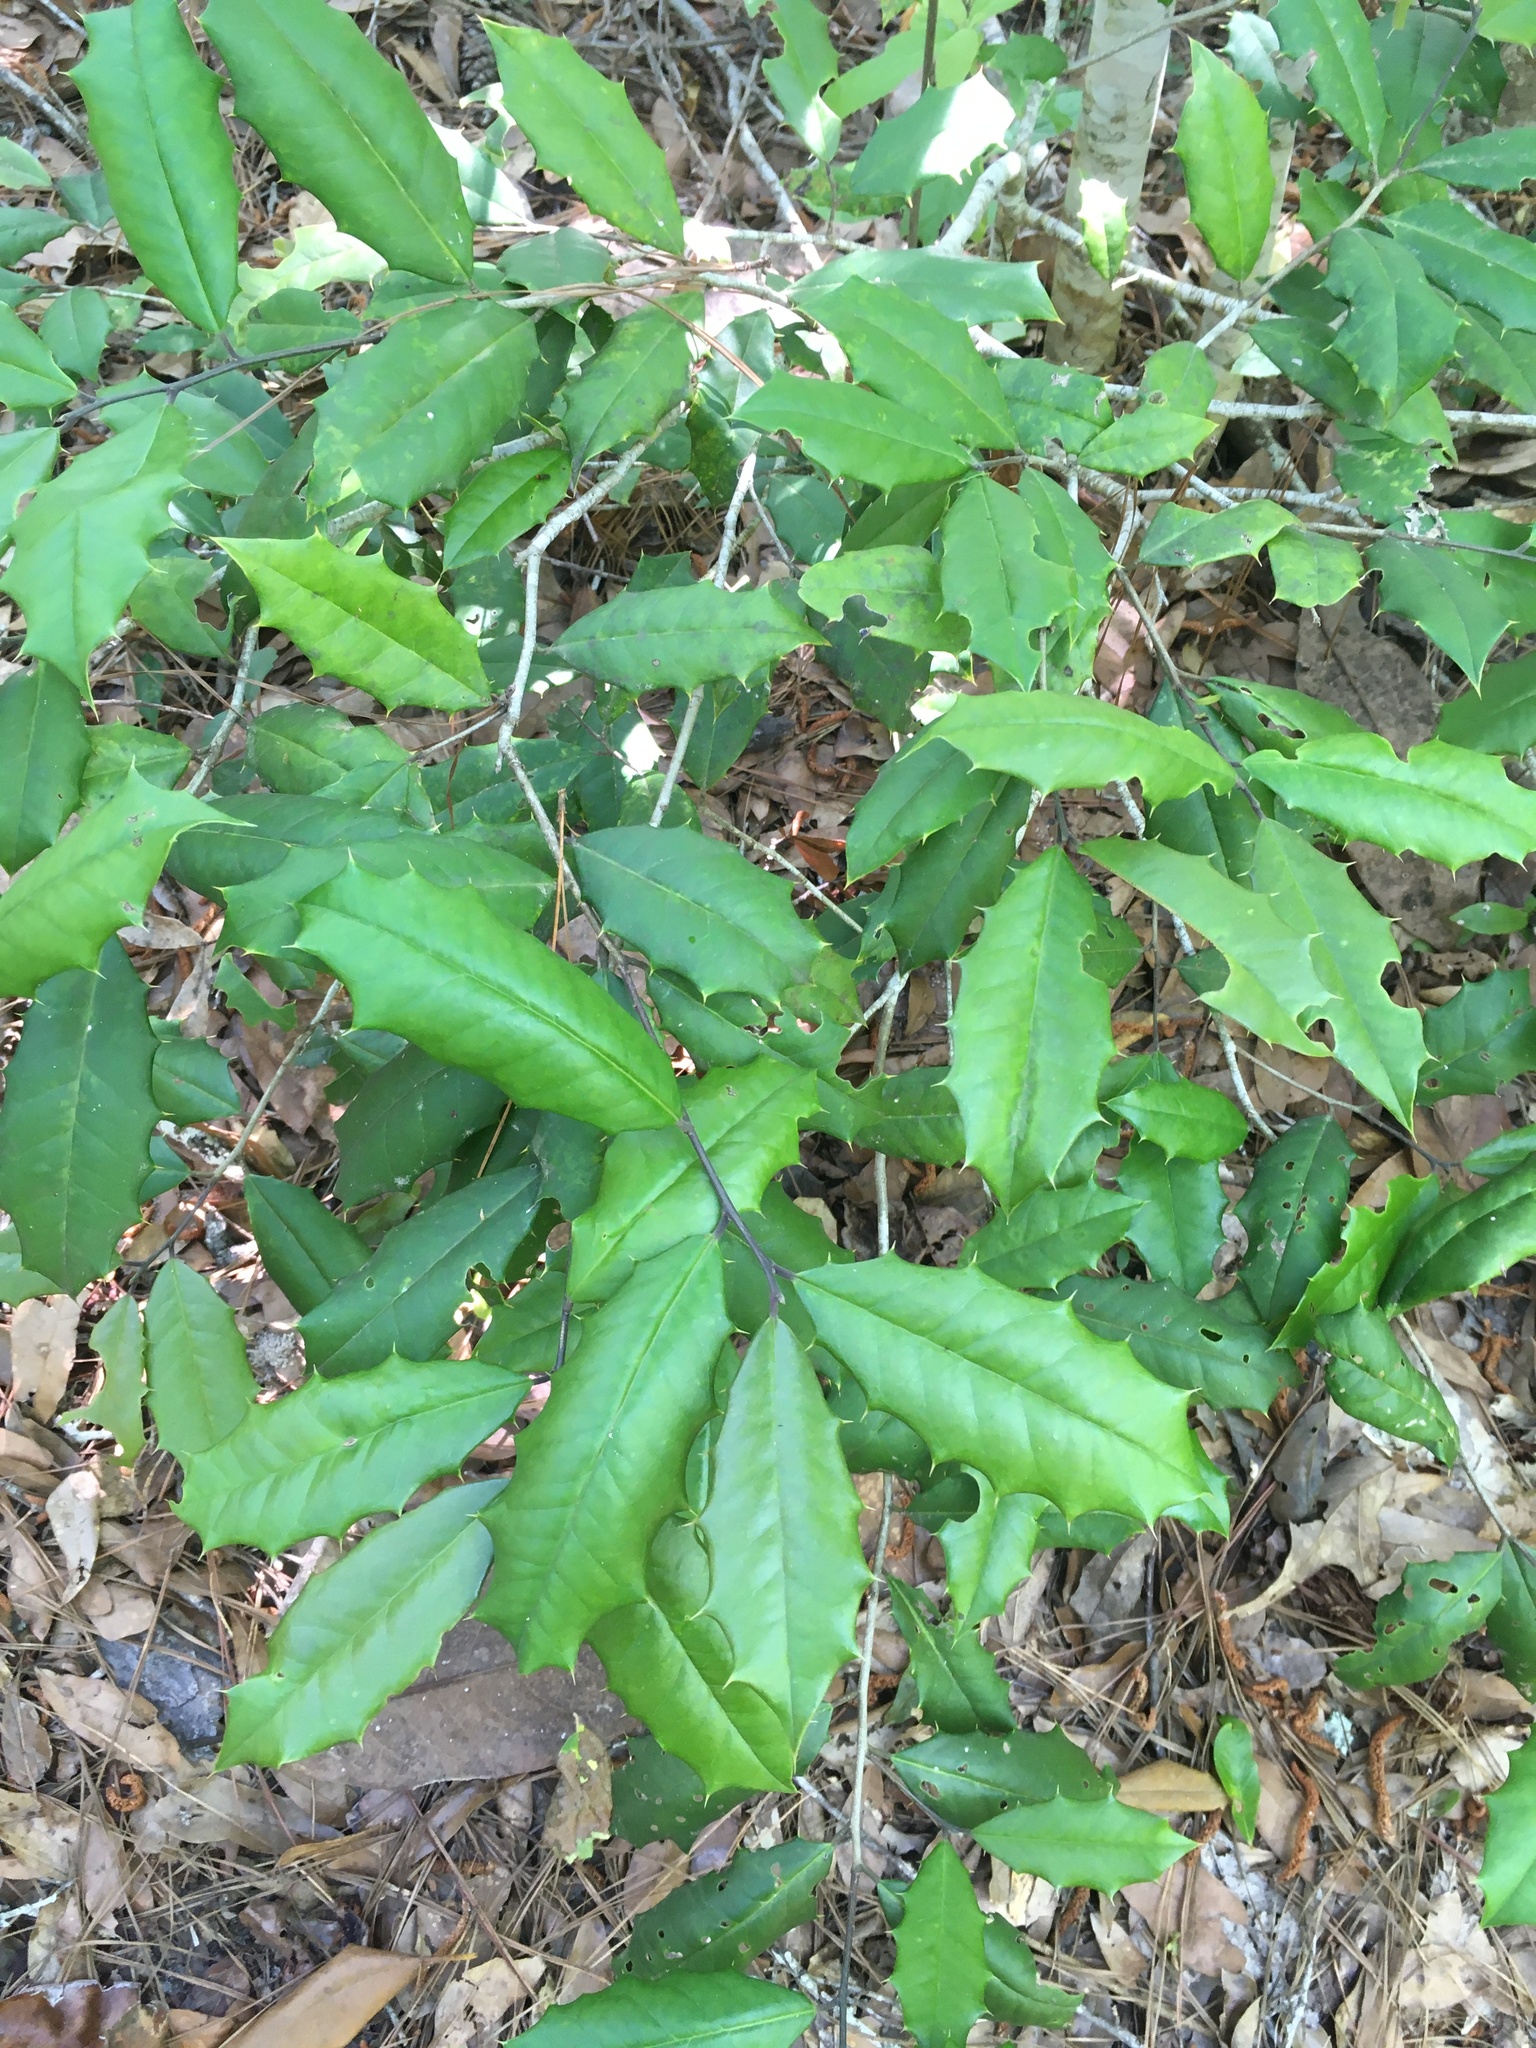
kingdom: Plantae
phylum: Tracheophyta
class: Magnoliopsida
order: Aquifoliales
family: Aquifoliaceae
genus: Ilex
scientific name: Ilex opaca
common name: American holly
